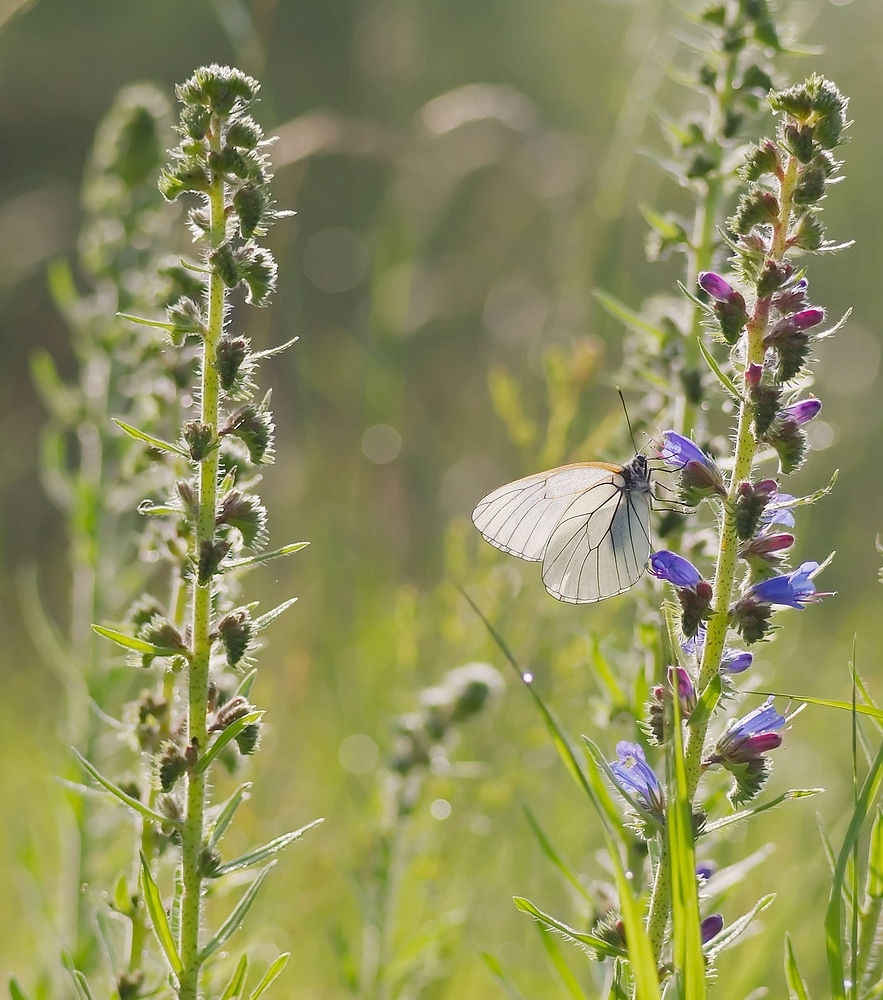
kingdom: Animalia
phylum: Arthropoda
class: Insecta
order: Lepidoptera
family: Pieridae
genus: Aporia
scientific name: Aporia crataegi
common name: Black-veined white
